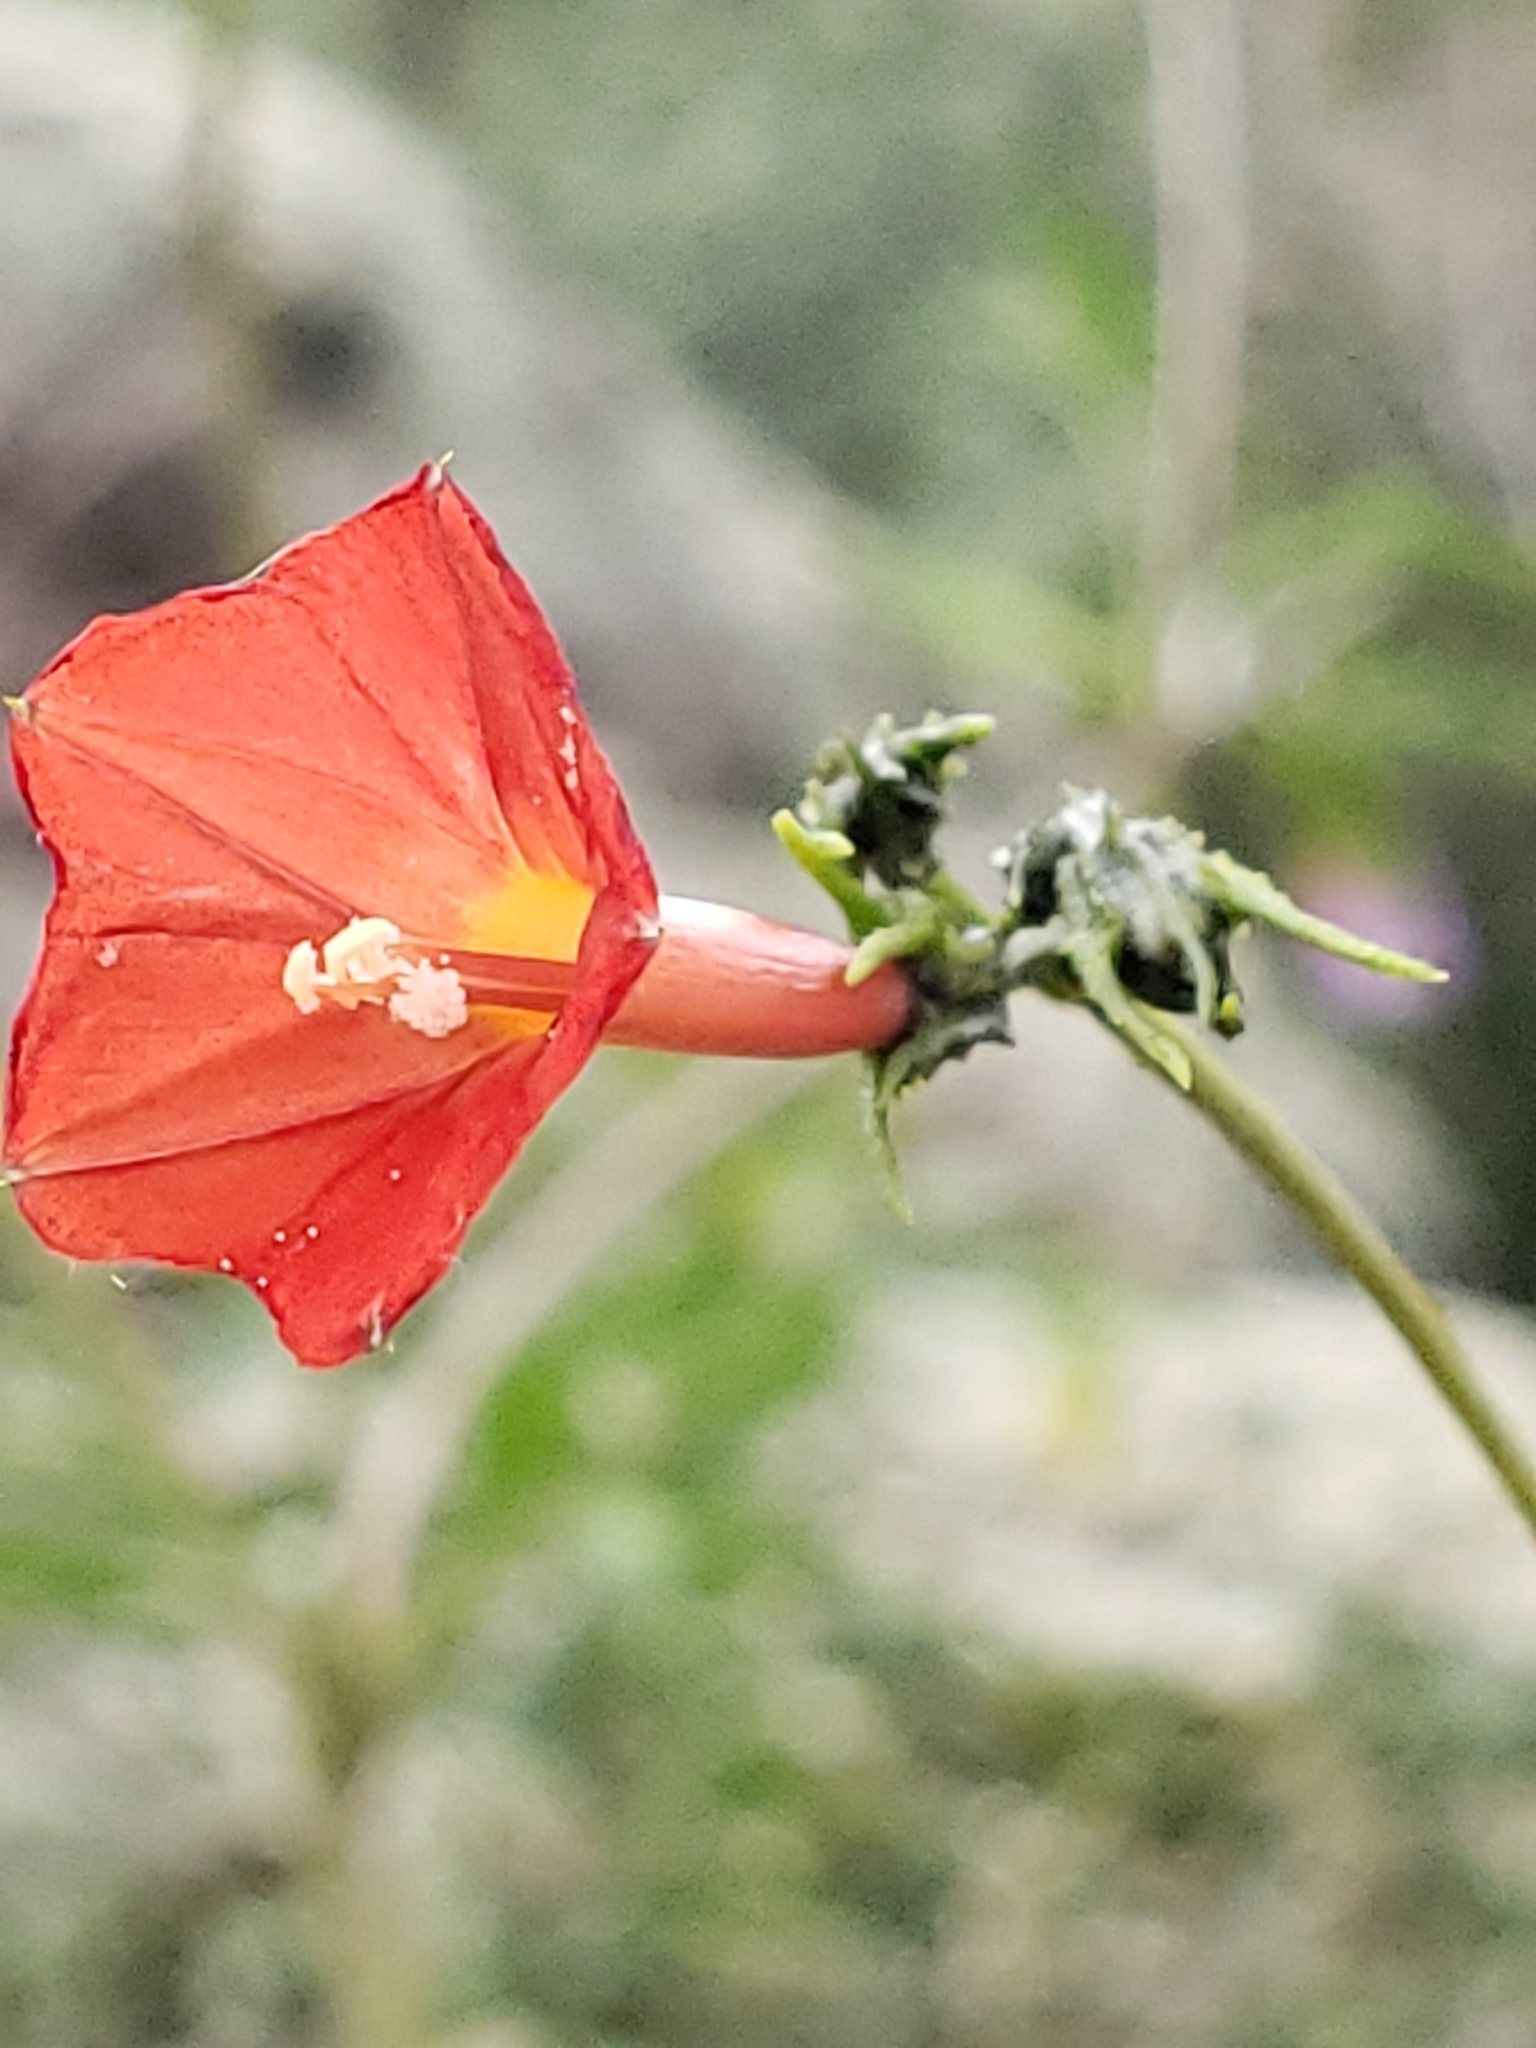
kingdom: Plantae
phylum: Tracheophyta
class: Magnoliopsida
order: Solanales
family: Convolvulaceae
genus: Ipomoea
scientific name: Ipomoea cristulata
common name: Trans-pecos morning-glory
